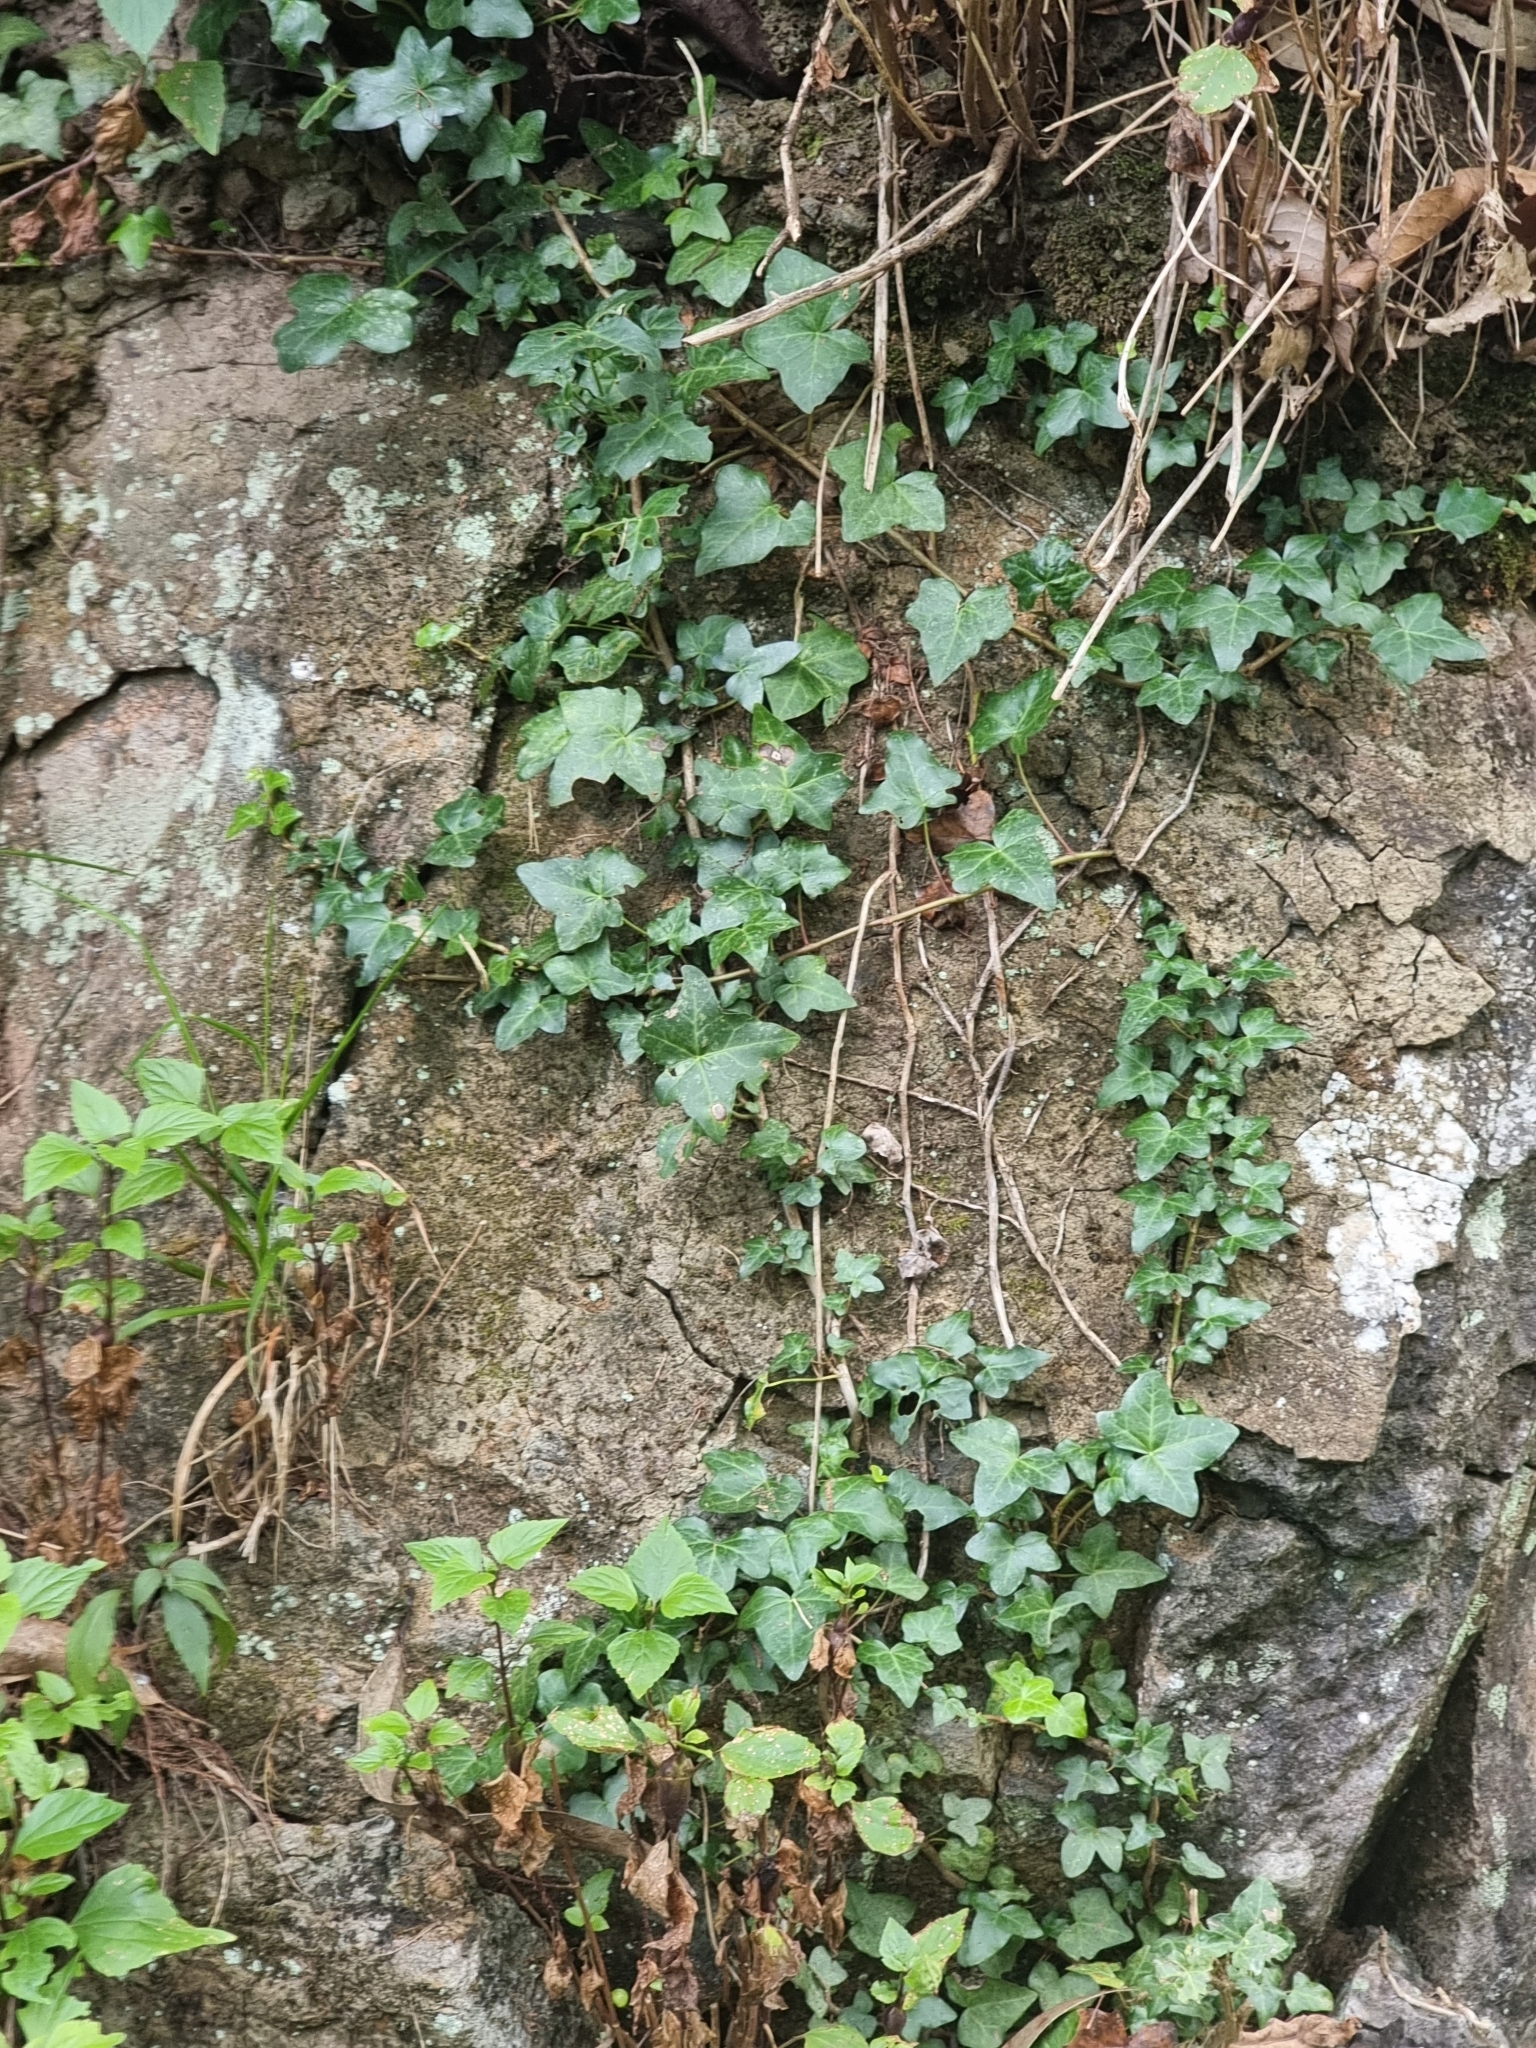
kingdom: Plantae
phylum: Tracheophyta
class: Magnoliopsida
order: Apiales
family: Araliaceae
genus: Hedera
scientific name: Hedera maderensis
